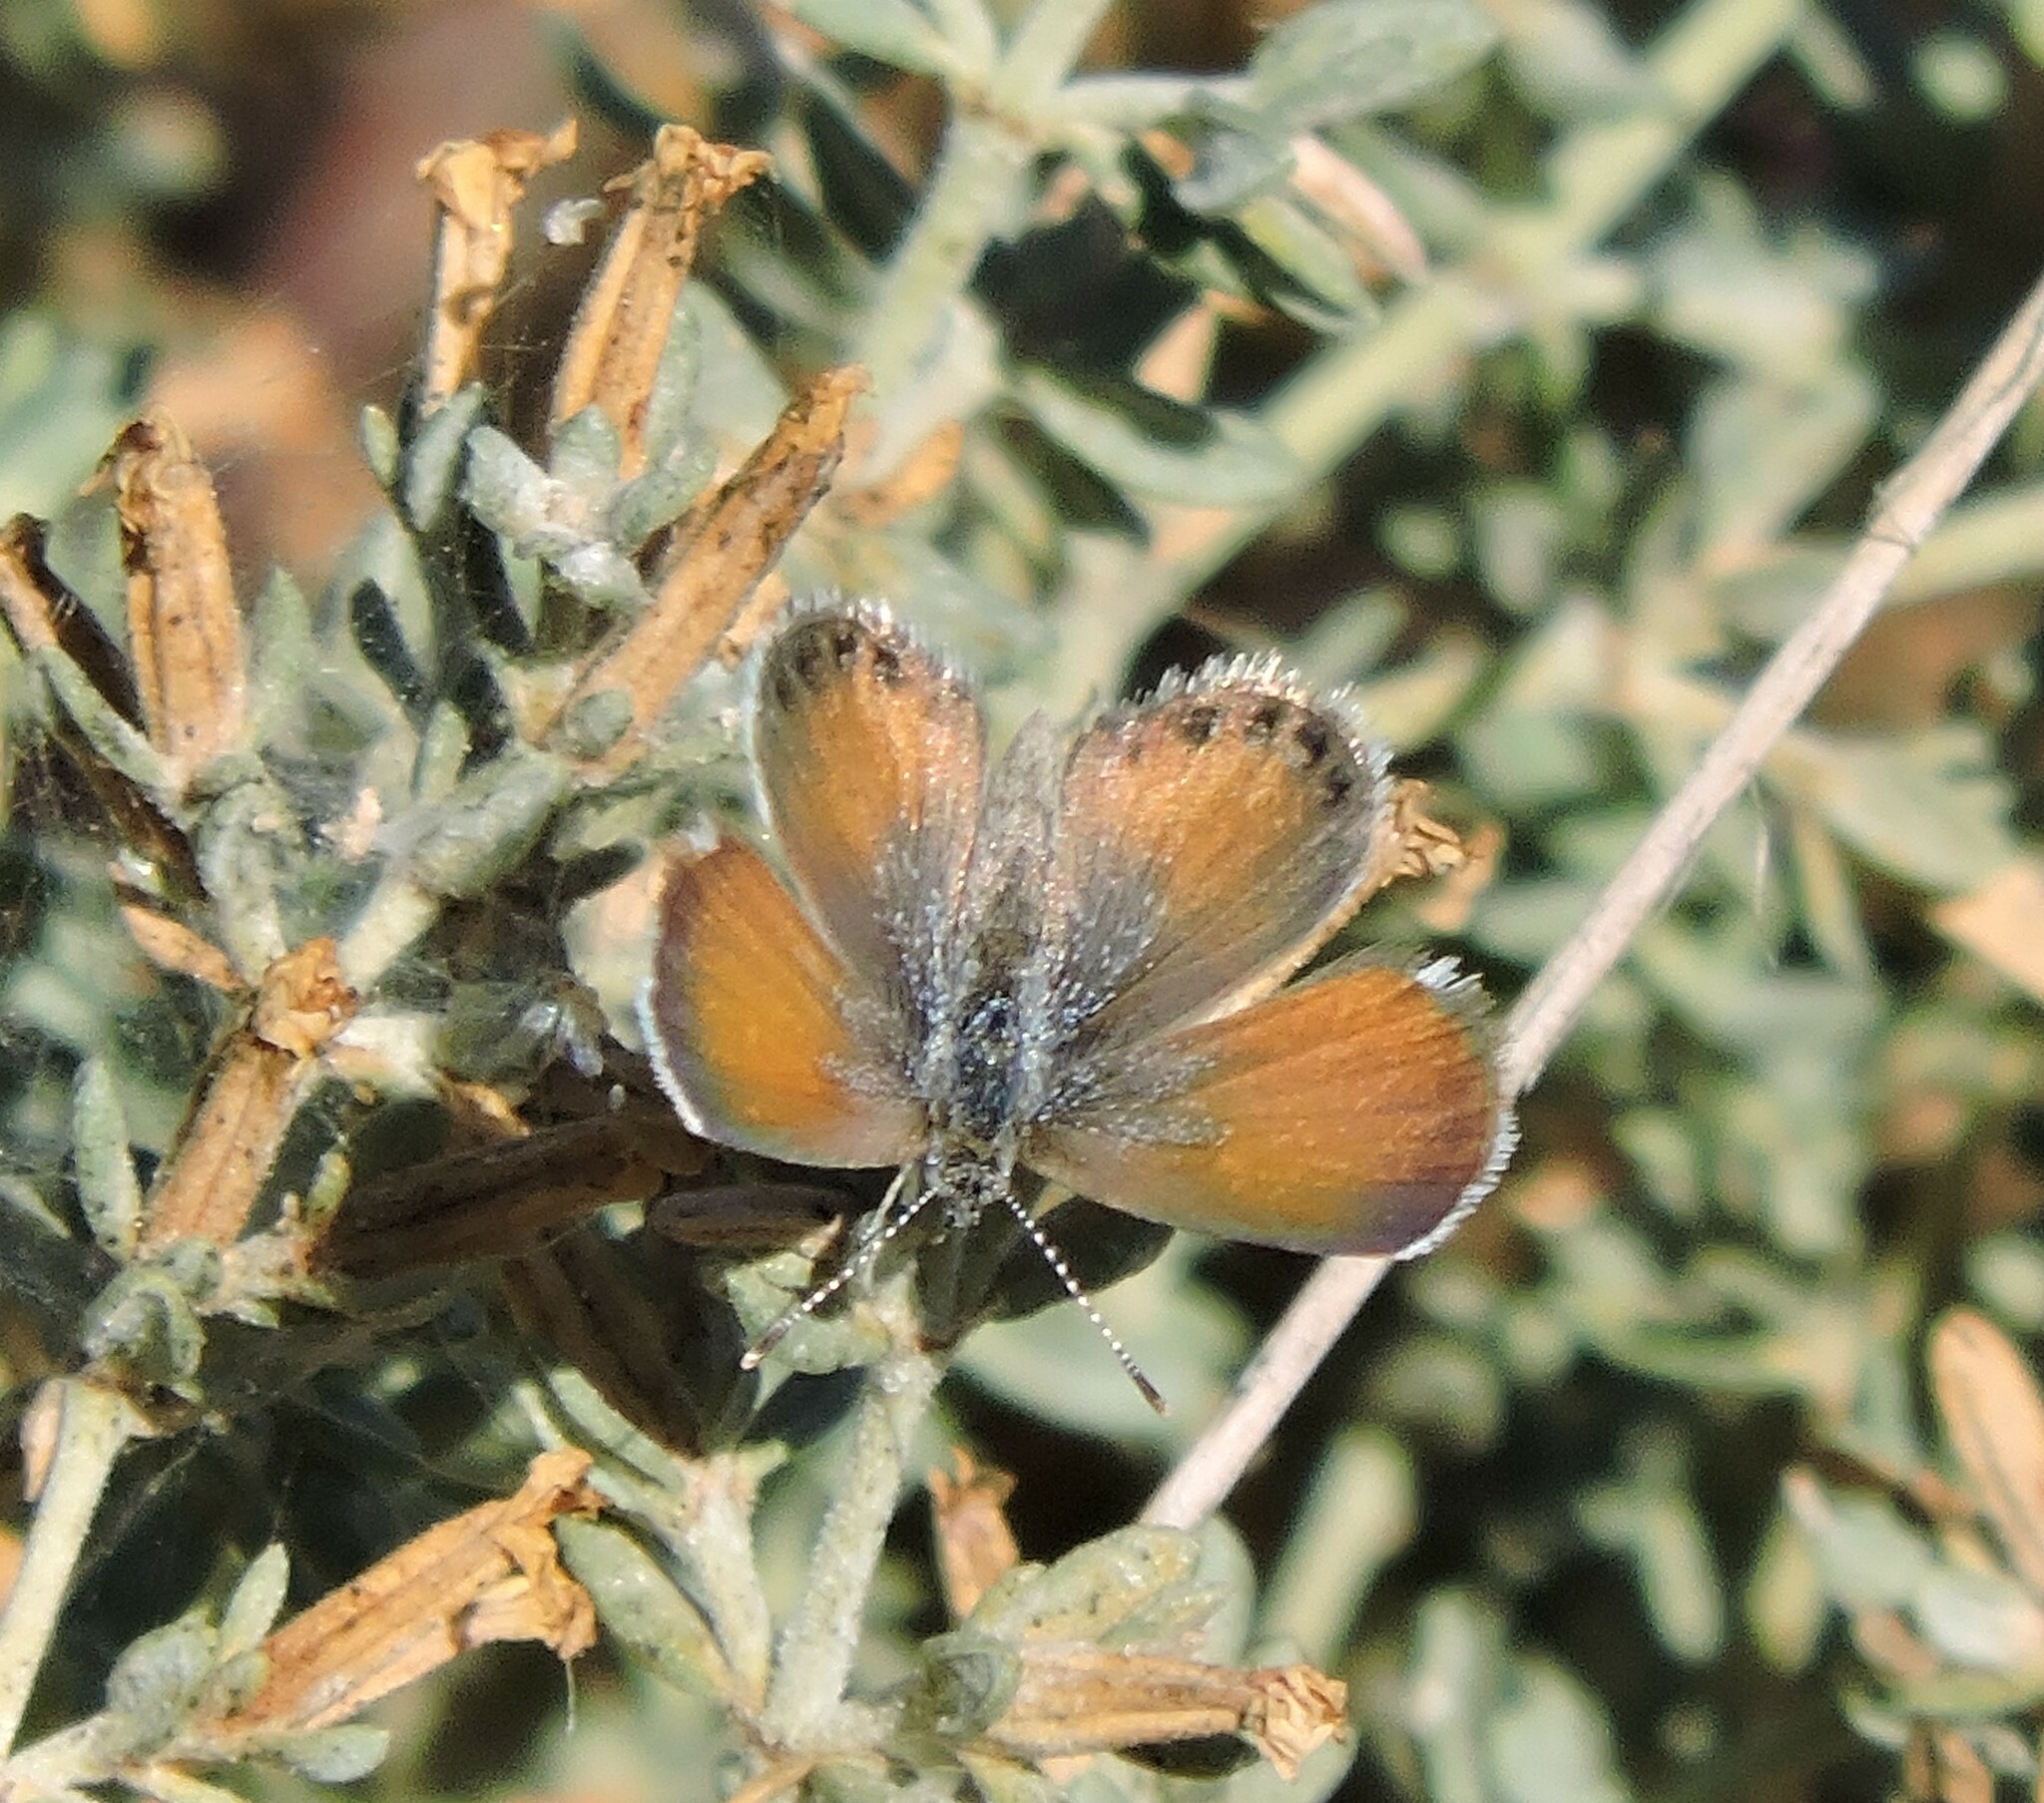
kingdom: Animalia
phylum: Arthropoda
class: Insecta
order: Lepidoptera
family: Lycaenidae
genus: Brephidium
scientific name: Brephidium exilis
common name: Pygmy blue
